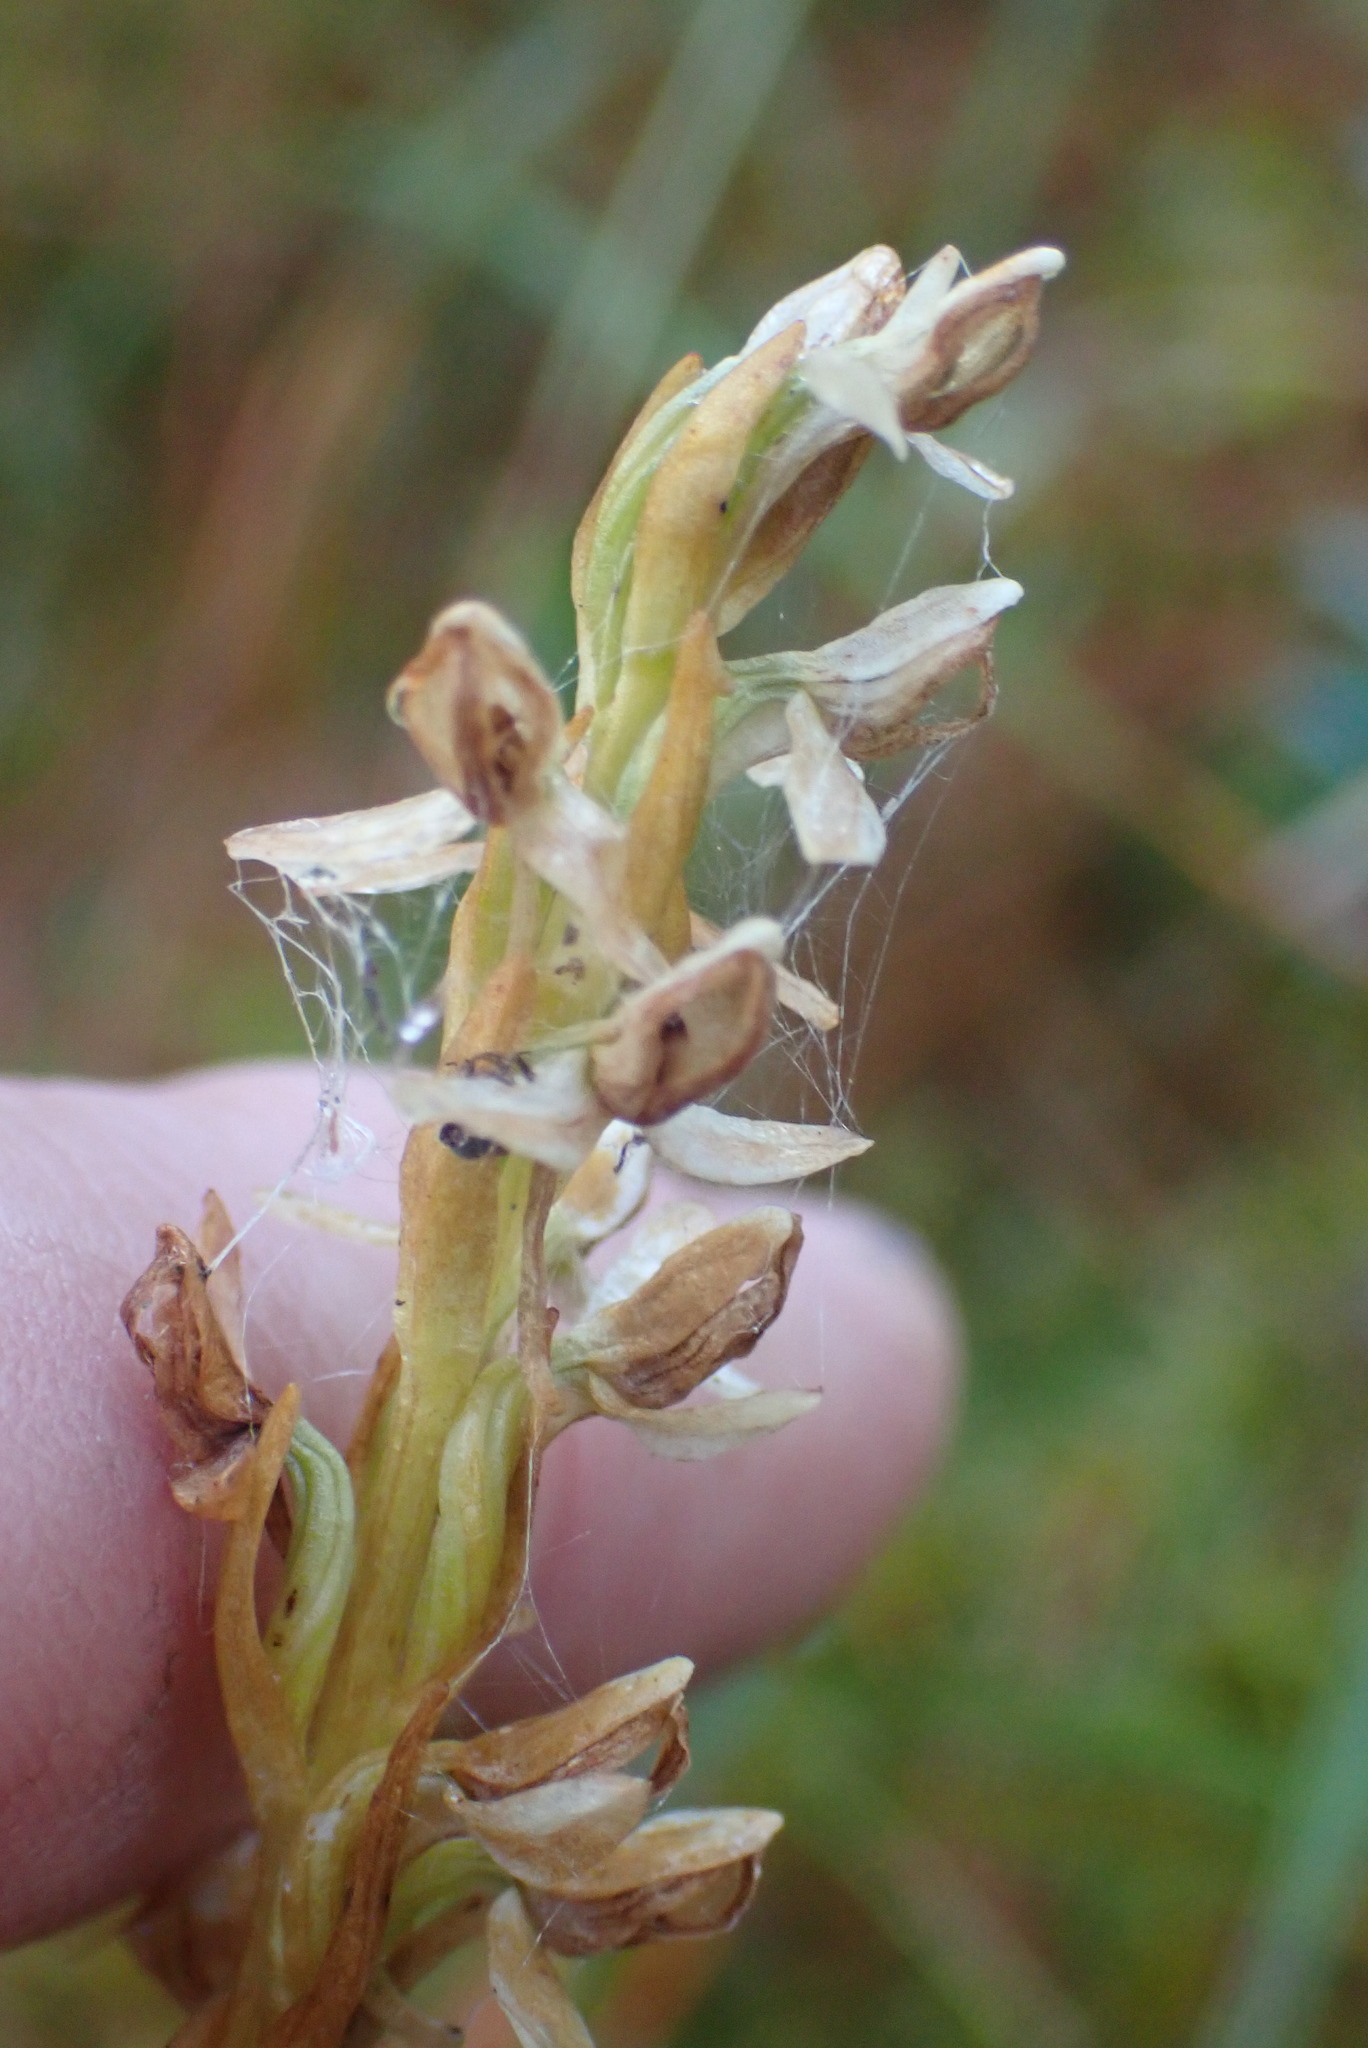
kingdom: Plantae
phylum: Tracheophyta
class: Liliopsida
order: Asparagales
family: Orchidaceae
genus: Platanthera
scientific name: Platanthera dilatata
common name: Bog candles
